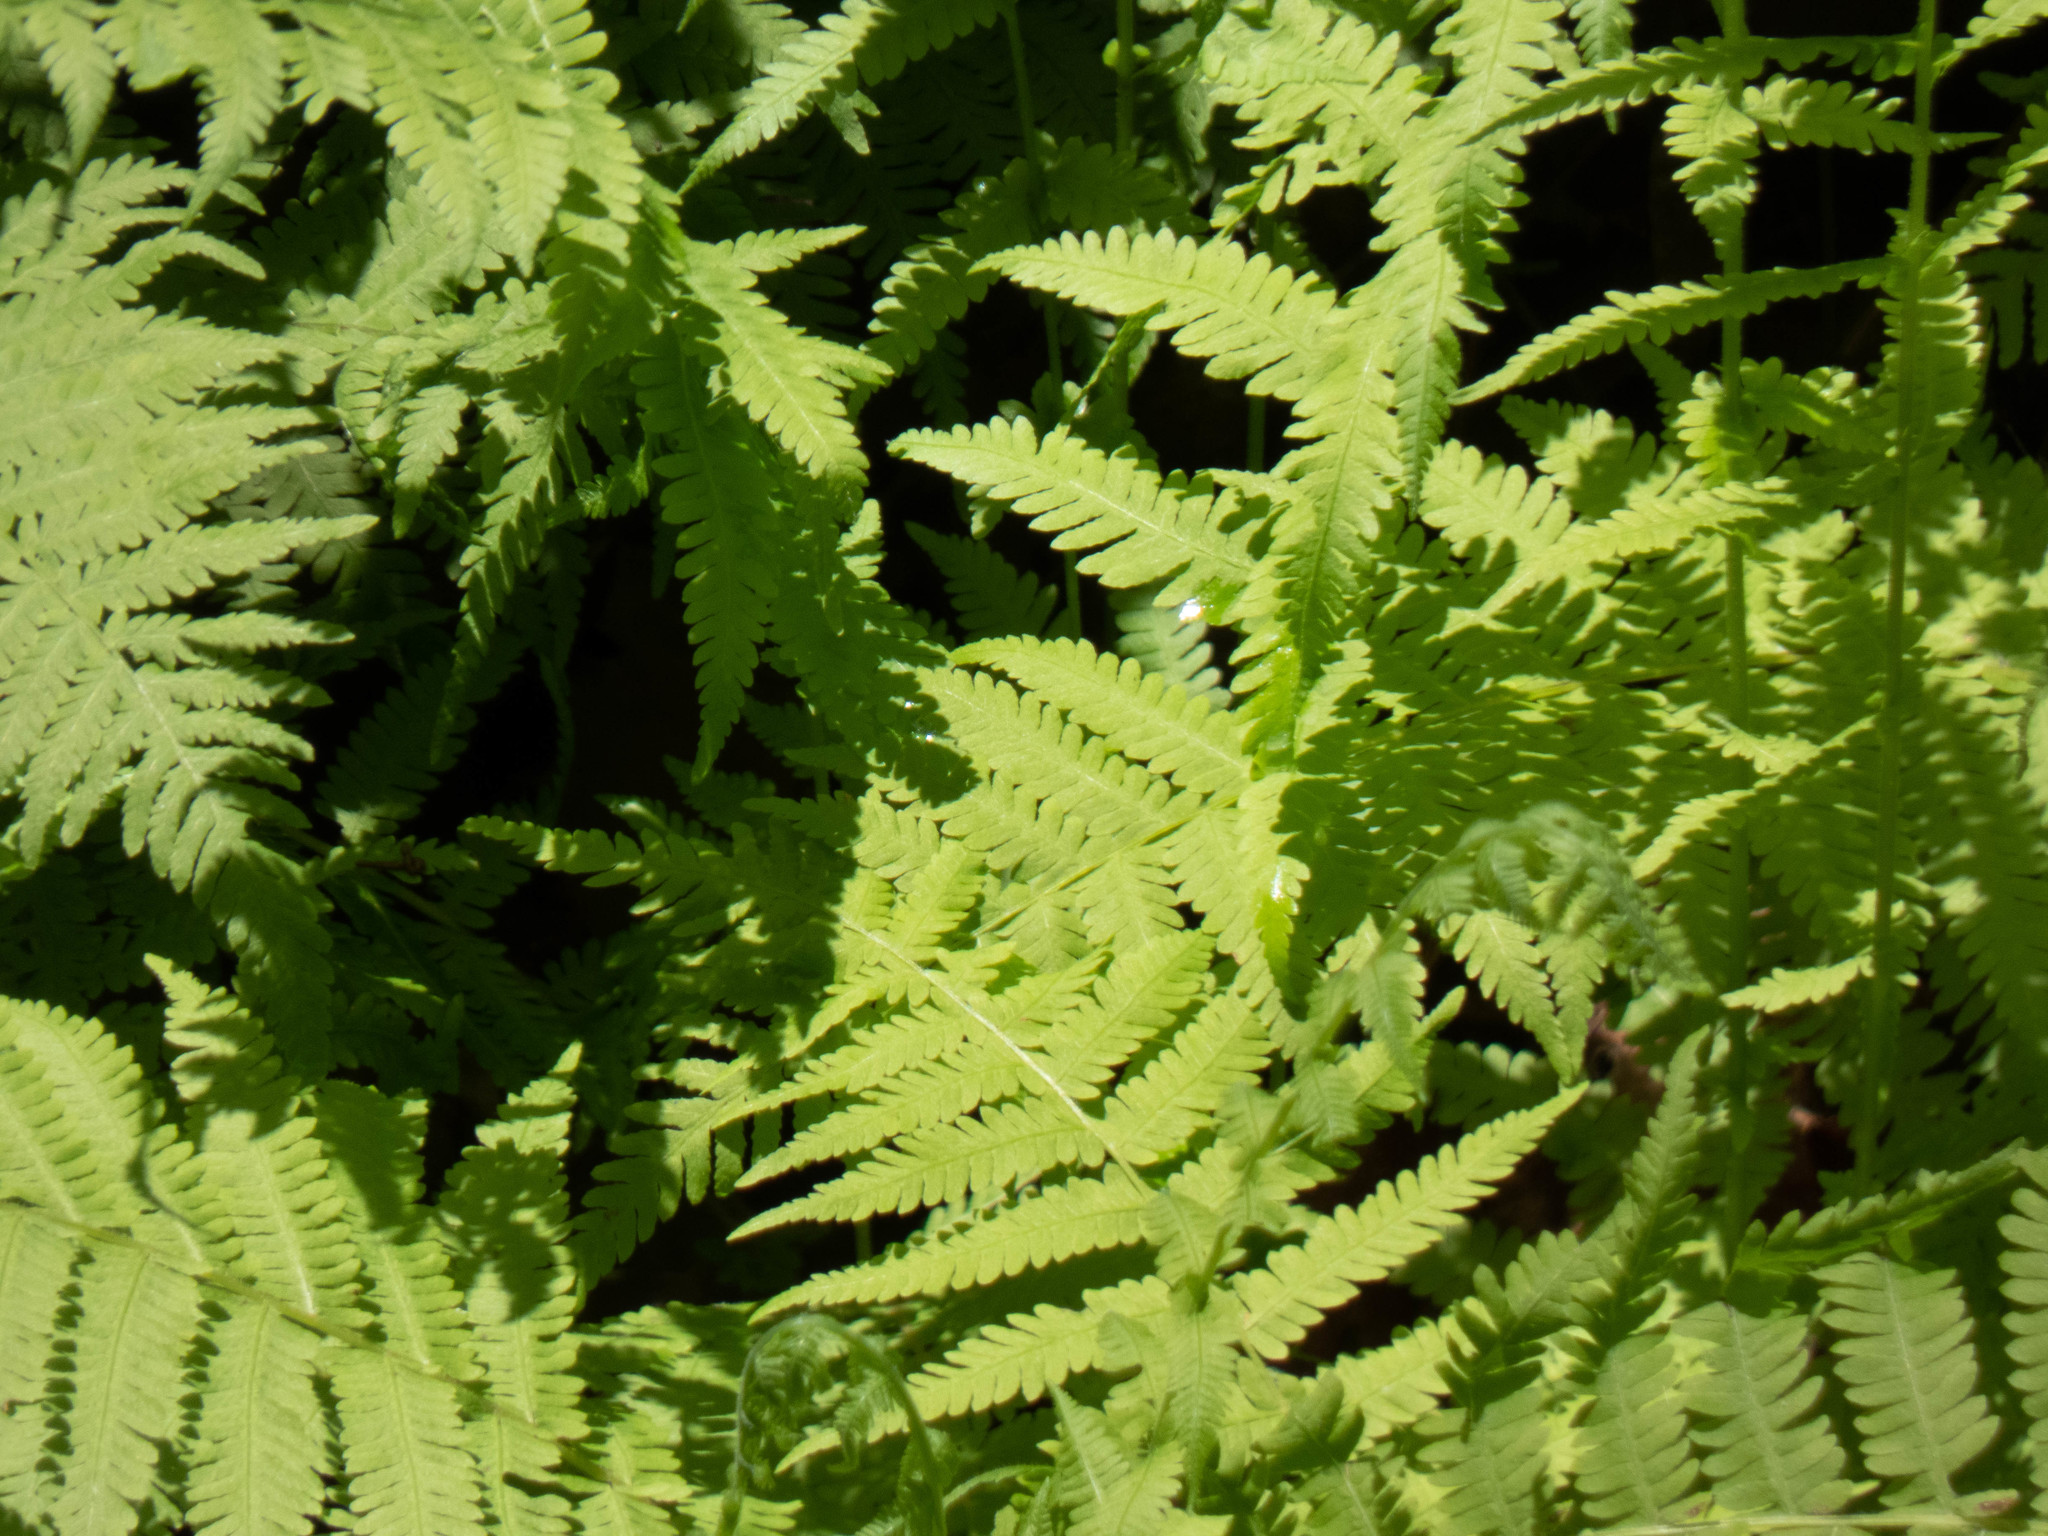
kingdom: Plantae
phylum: Tracheophyta
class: Polypodiopsida
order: Polypodiales
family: Thelypteridaceae
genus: Amauropelta
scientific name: Amauropelta noveboracensis
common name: New york fern
